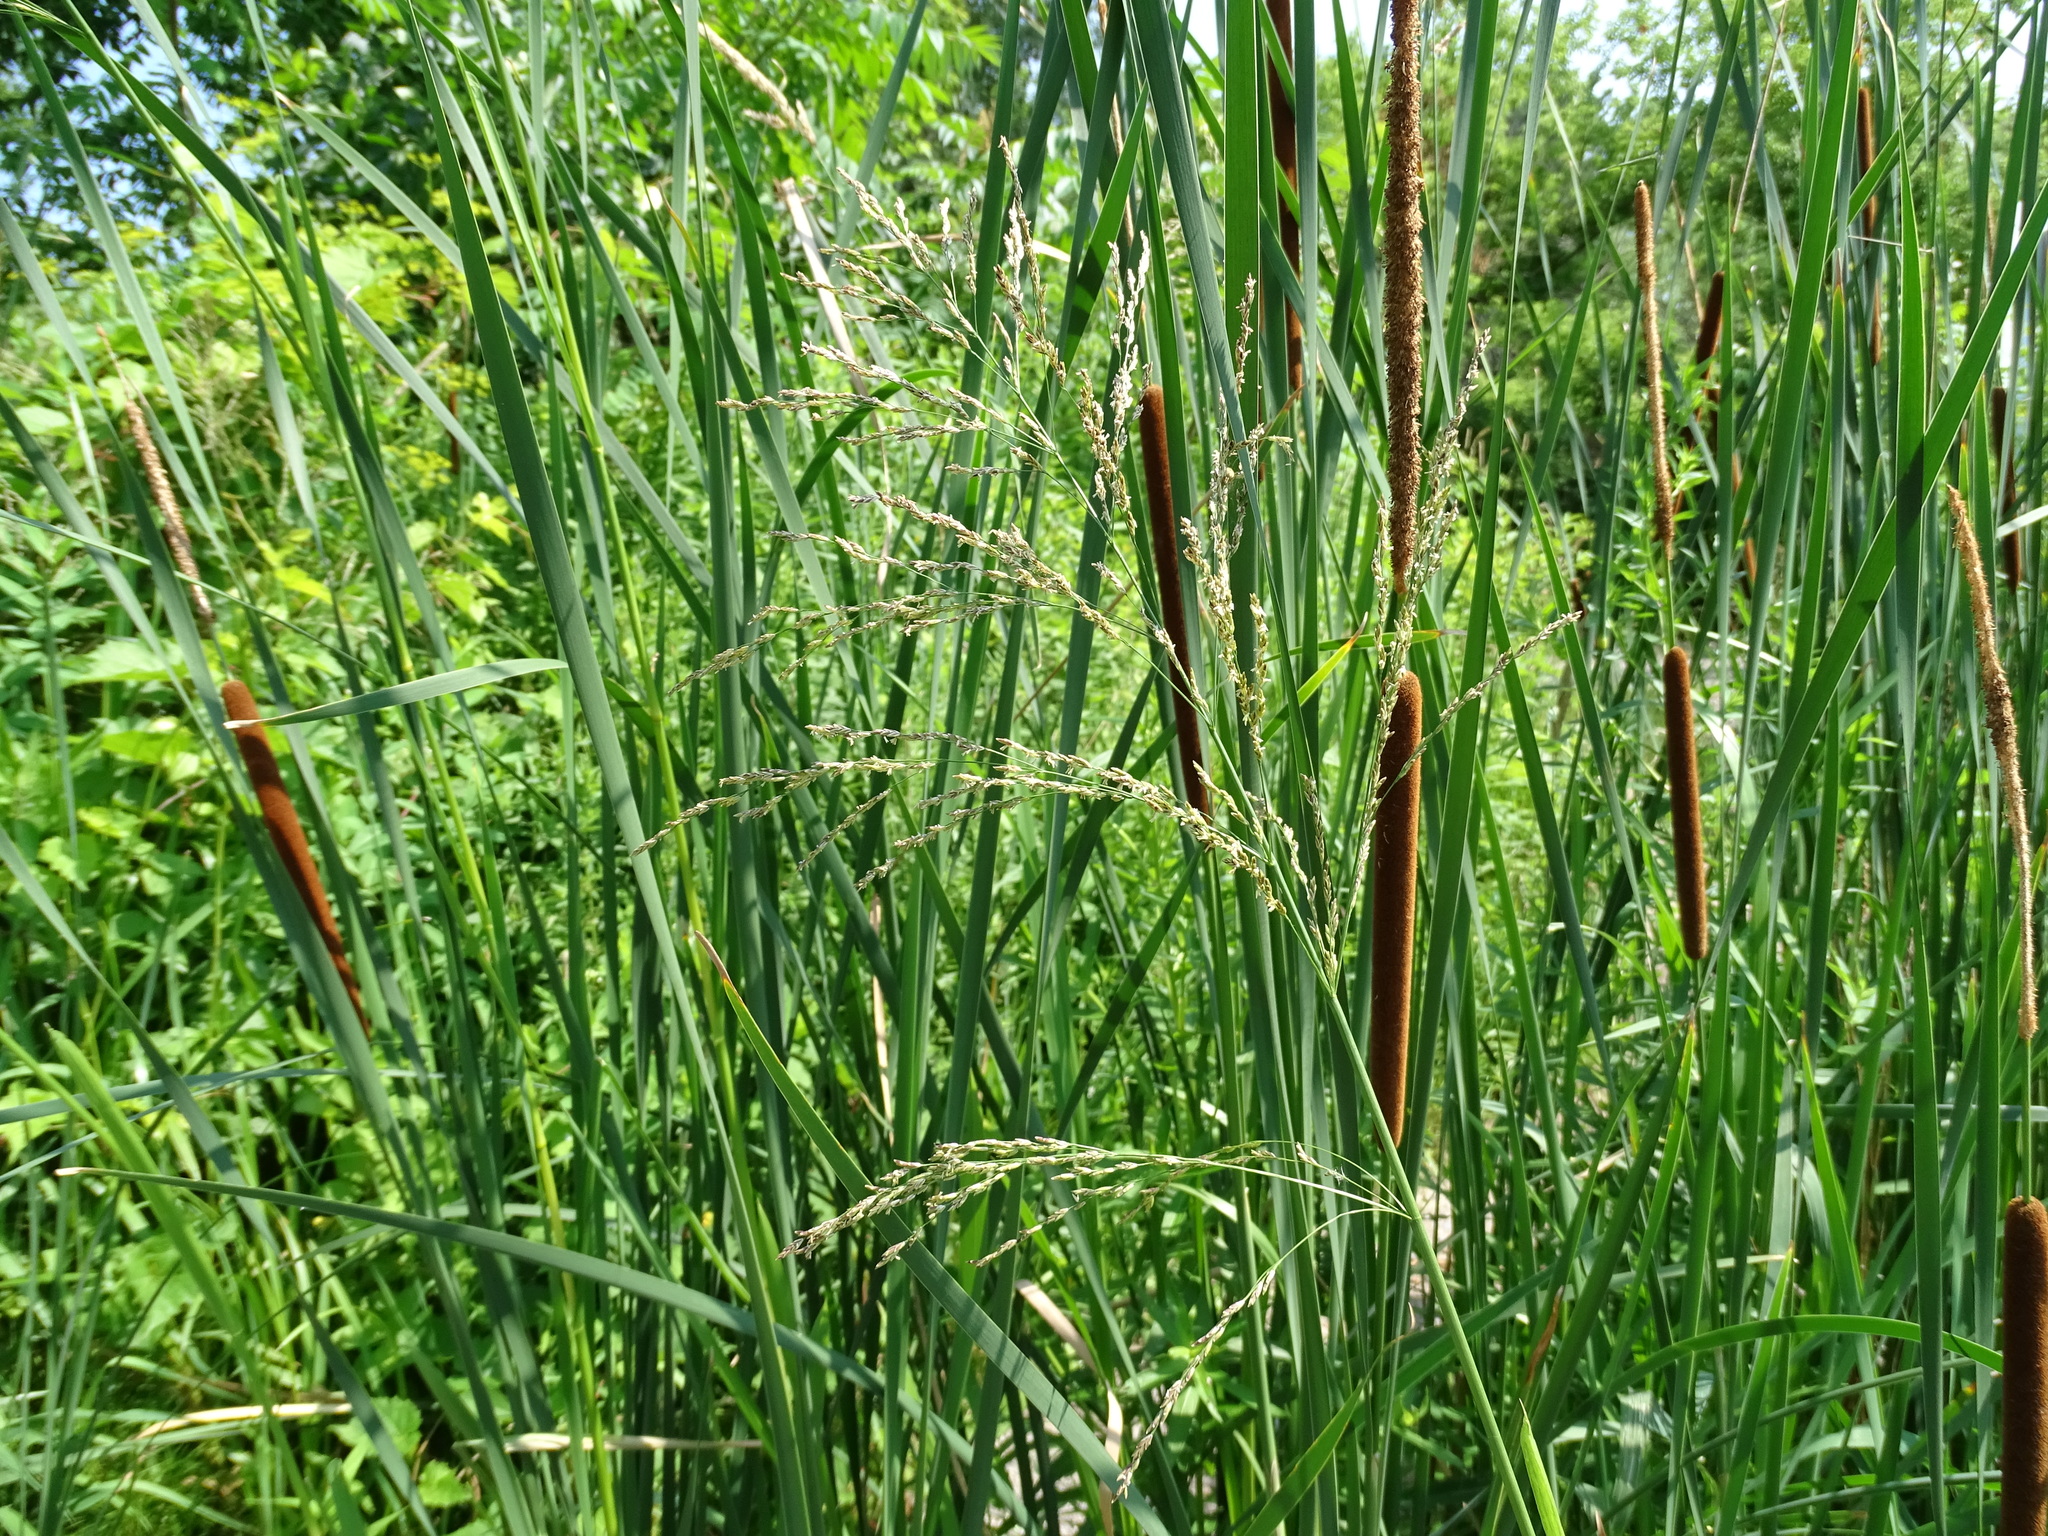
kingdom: Plantae
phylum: Tracheophyta
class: Liliopsida
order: Poales
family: Poaceae
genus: Glyceria
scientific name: Glyceria maxima
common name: Reed mannagrass
